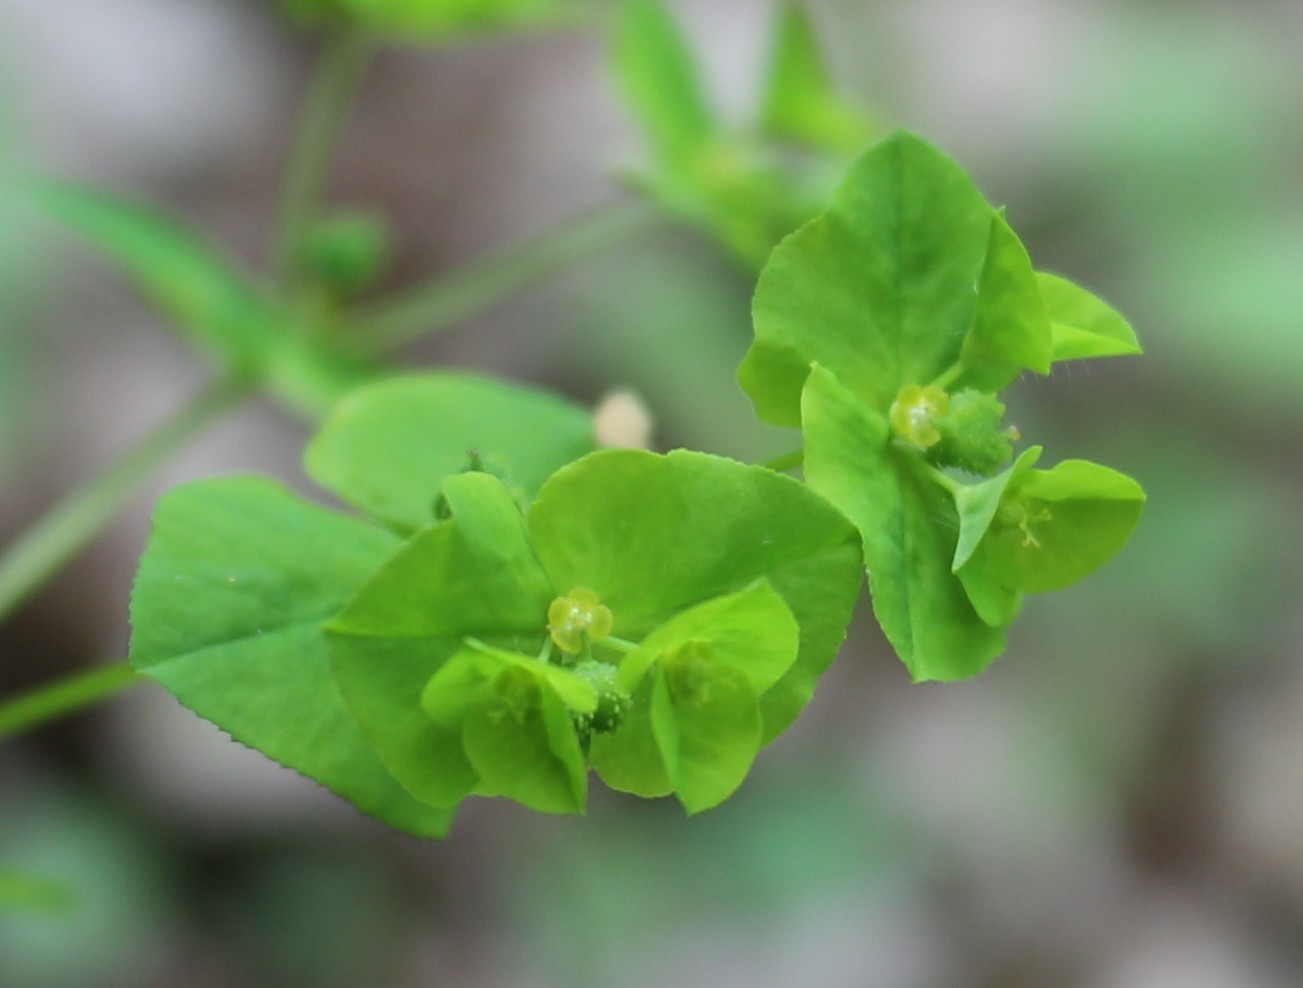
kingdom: Plantae
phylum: Tracheophyta
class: Magnoliopsida
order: Malpighiales
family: Euphorbiaceae
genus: Euphorbia
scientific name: Euphorbia stricta
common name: Upright spurge
